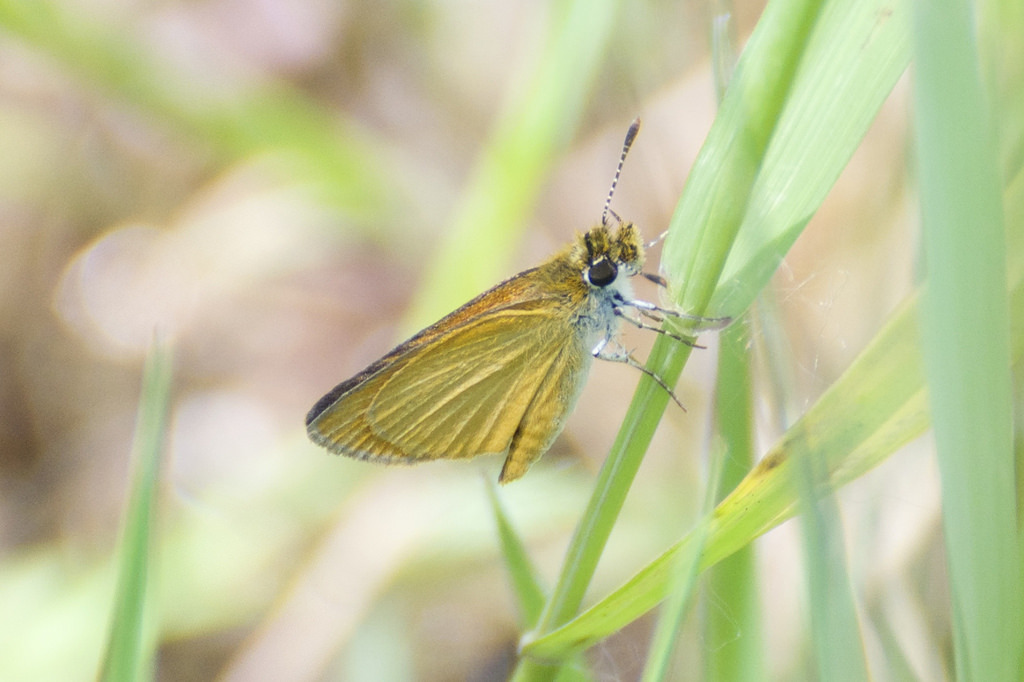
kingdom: Animalia
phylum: Arthropoda
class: Insecta
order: Lepidoptera
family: Hesperiidae
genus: Ancyloxypha
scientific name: Ancyloxypha numitor
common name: Least skipper
